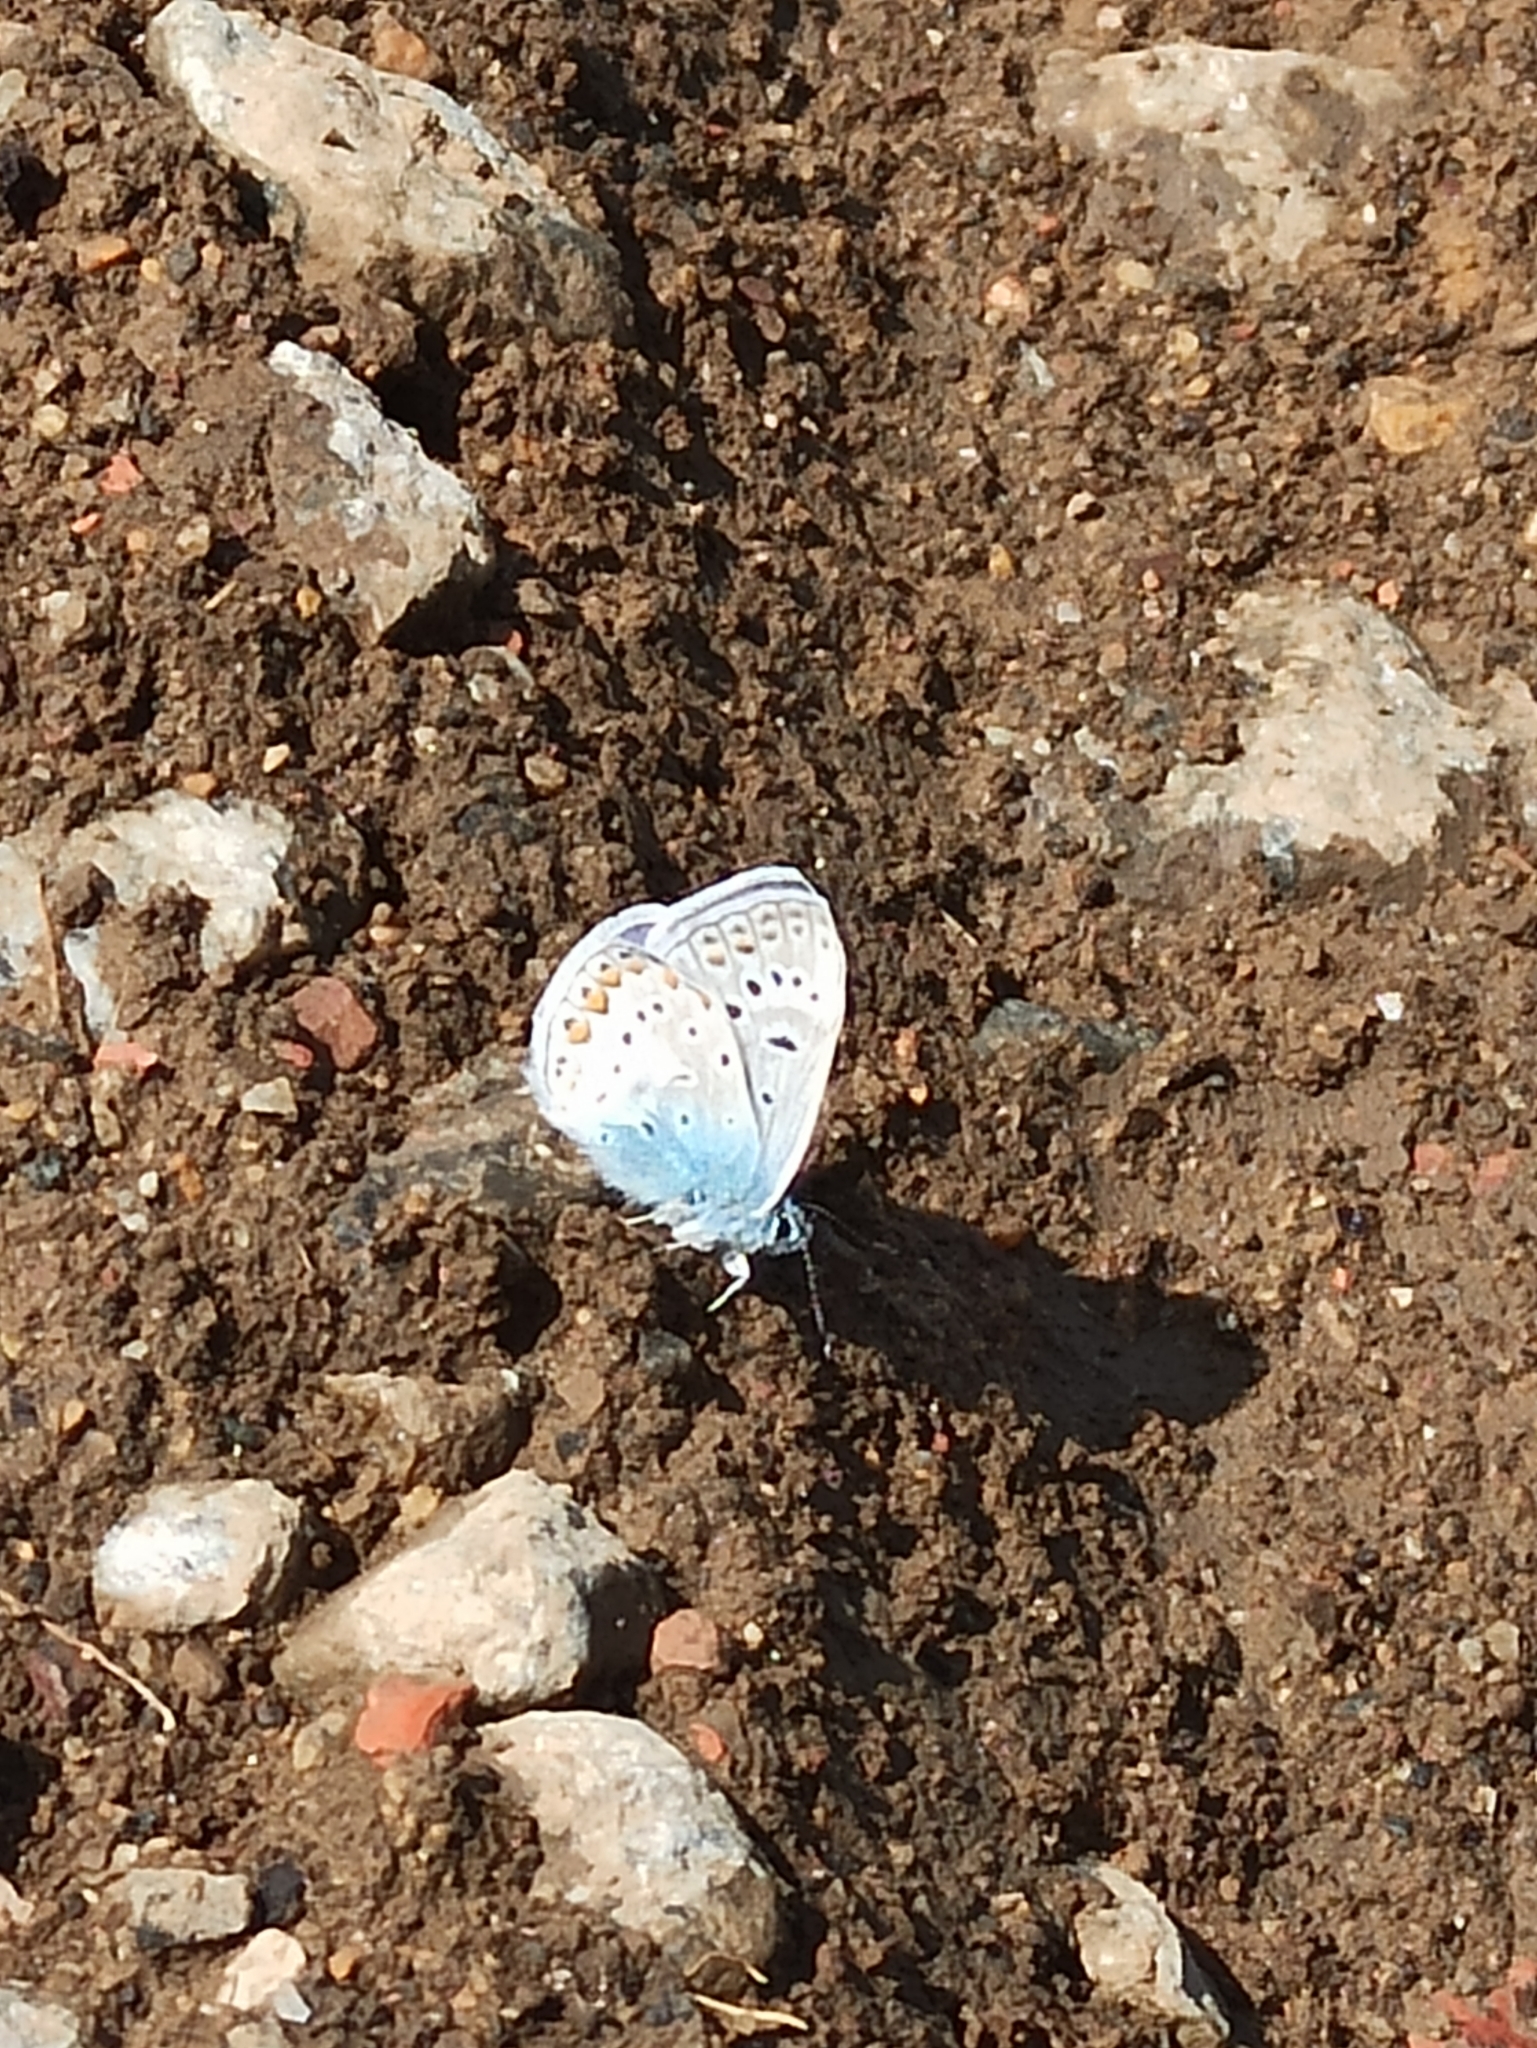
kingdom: Animalia
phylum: Arthropoda
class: Insecta
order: Lepidoptera
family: Lycaenidae
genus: Polyommatus
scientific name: Polyommatus icarus
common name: Common blue
